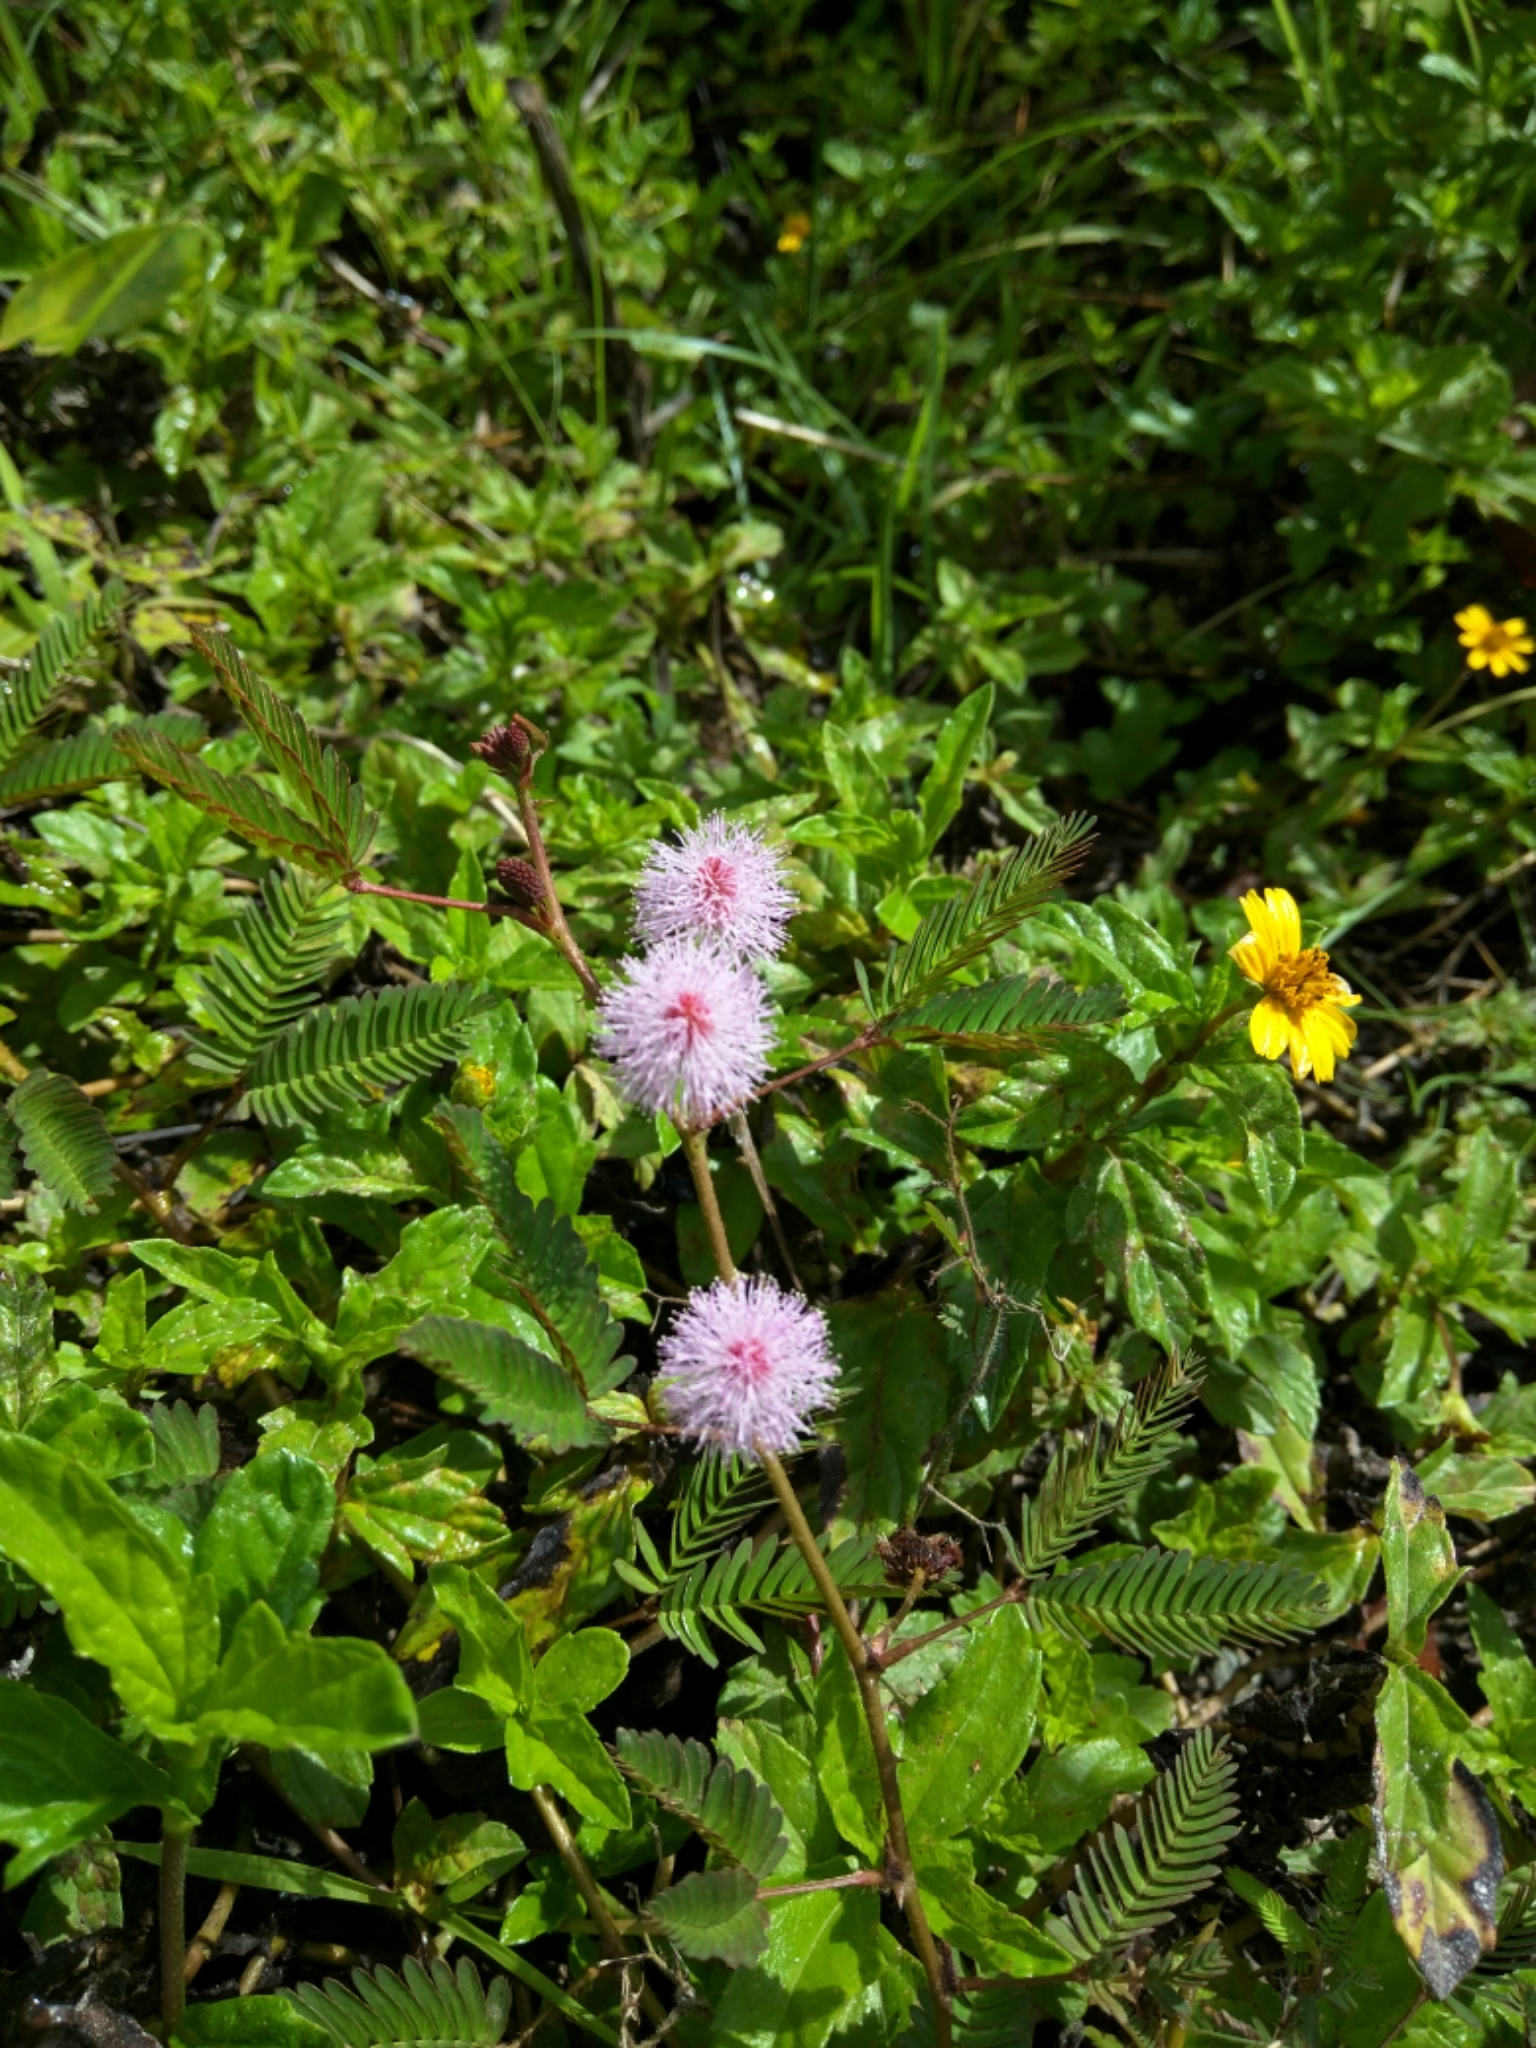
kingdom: Plantae
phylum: Tracheophyta
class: Magnoliopsida
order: Fabales
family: Fabaceae
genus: Mimosa
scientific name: Mimosa pudica
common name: Sensitive plant
